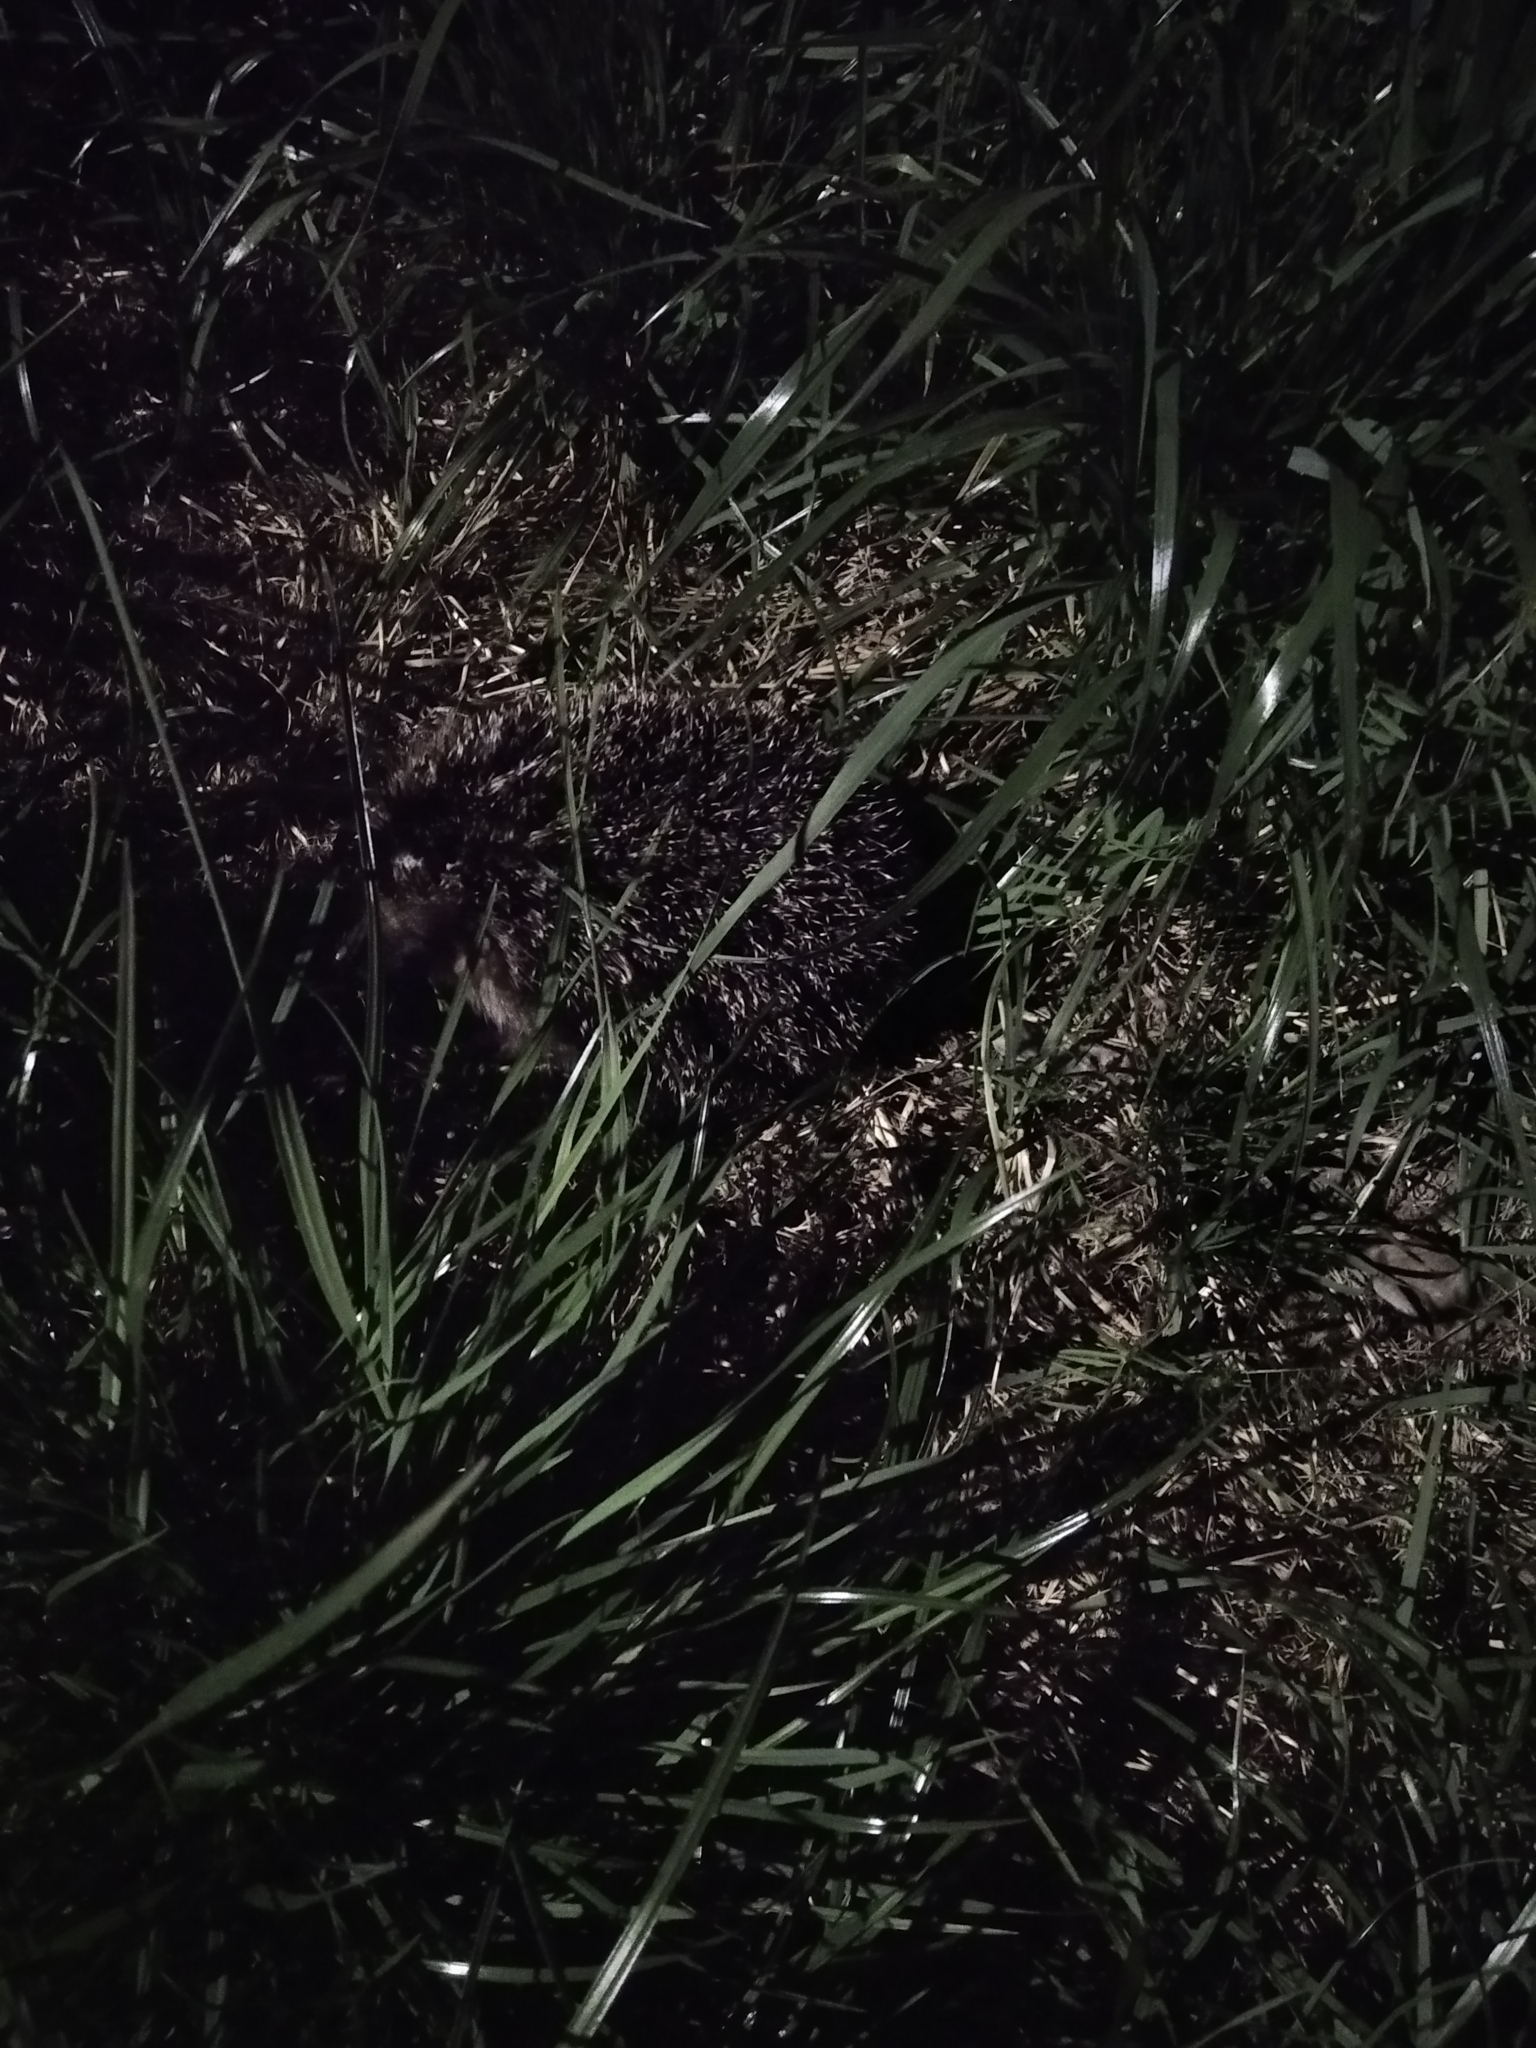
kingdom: Animalia
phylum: Chordata
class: Mammalia
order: Erinaceomorpha
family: Erinaceidae
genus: Erinaceus
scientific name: Erinaceus roumanicus
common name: Northern white-breasted hedgehog
